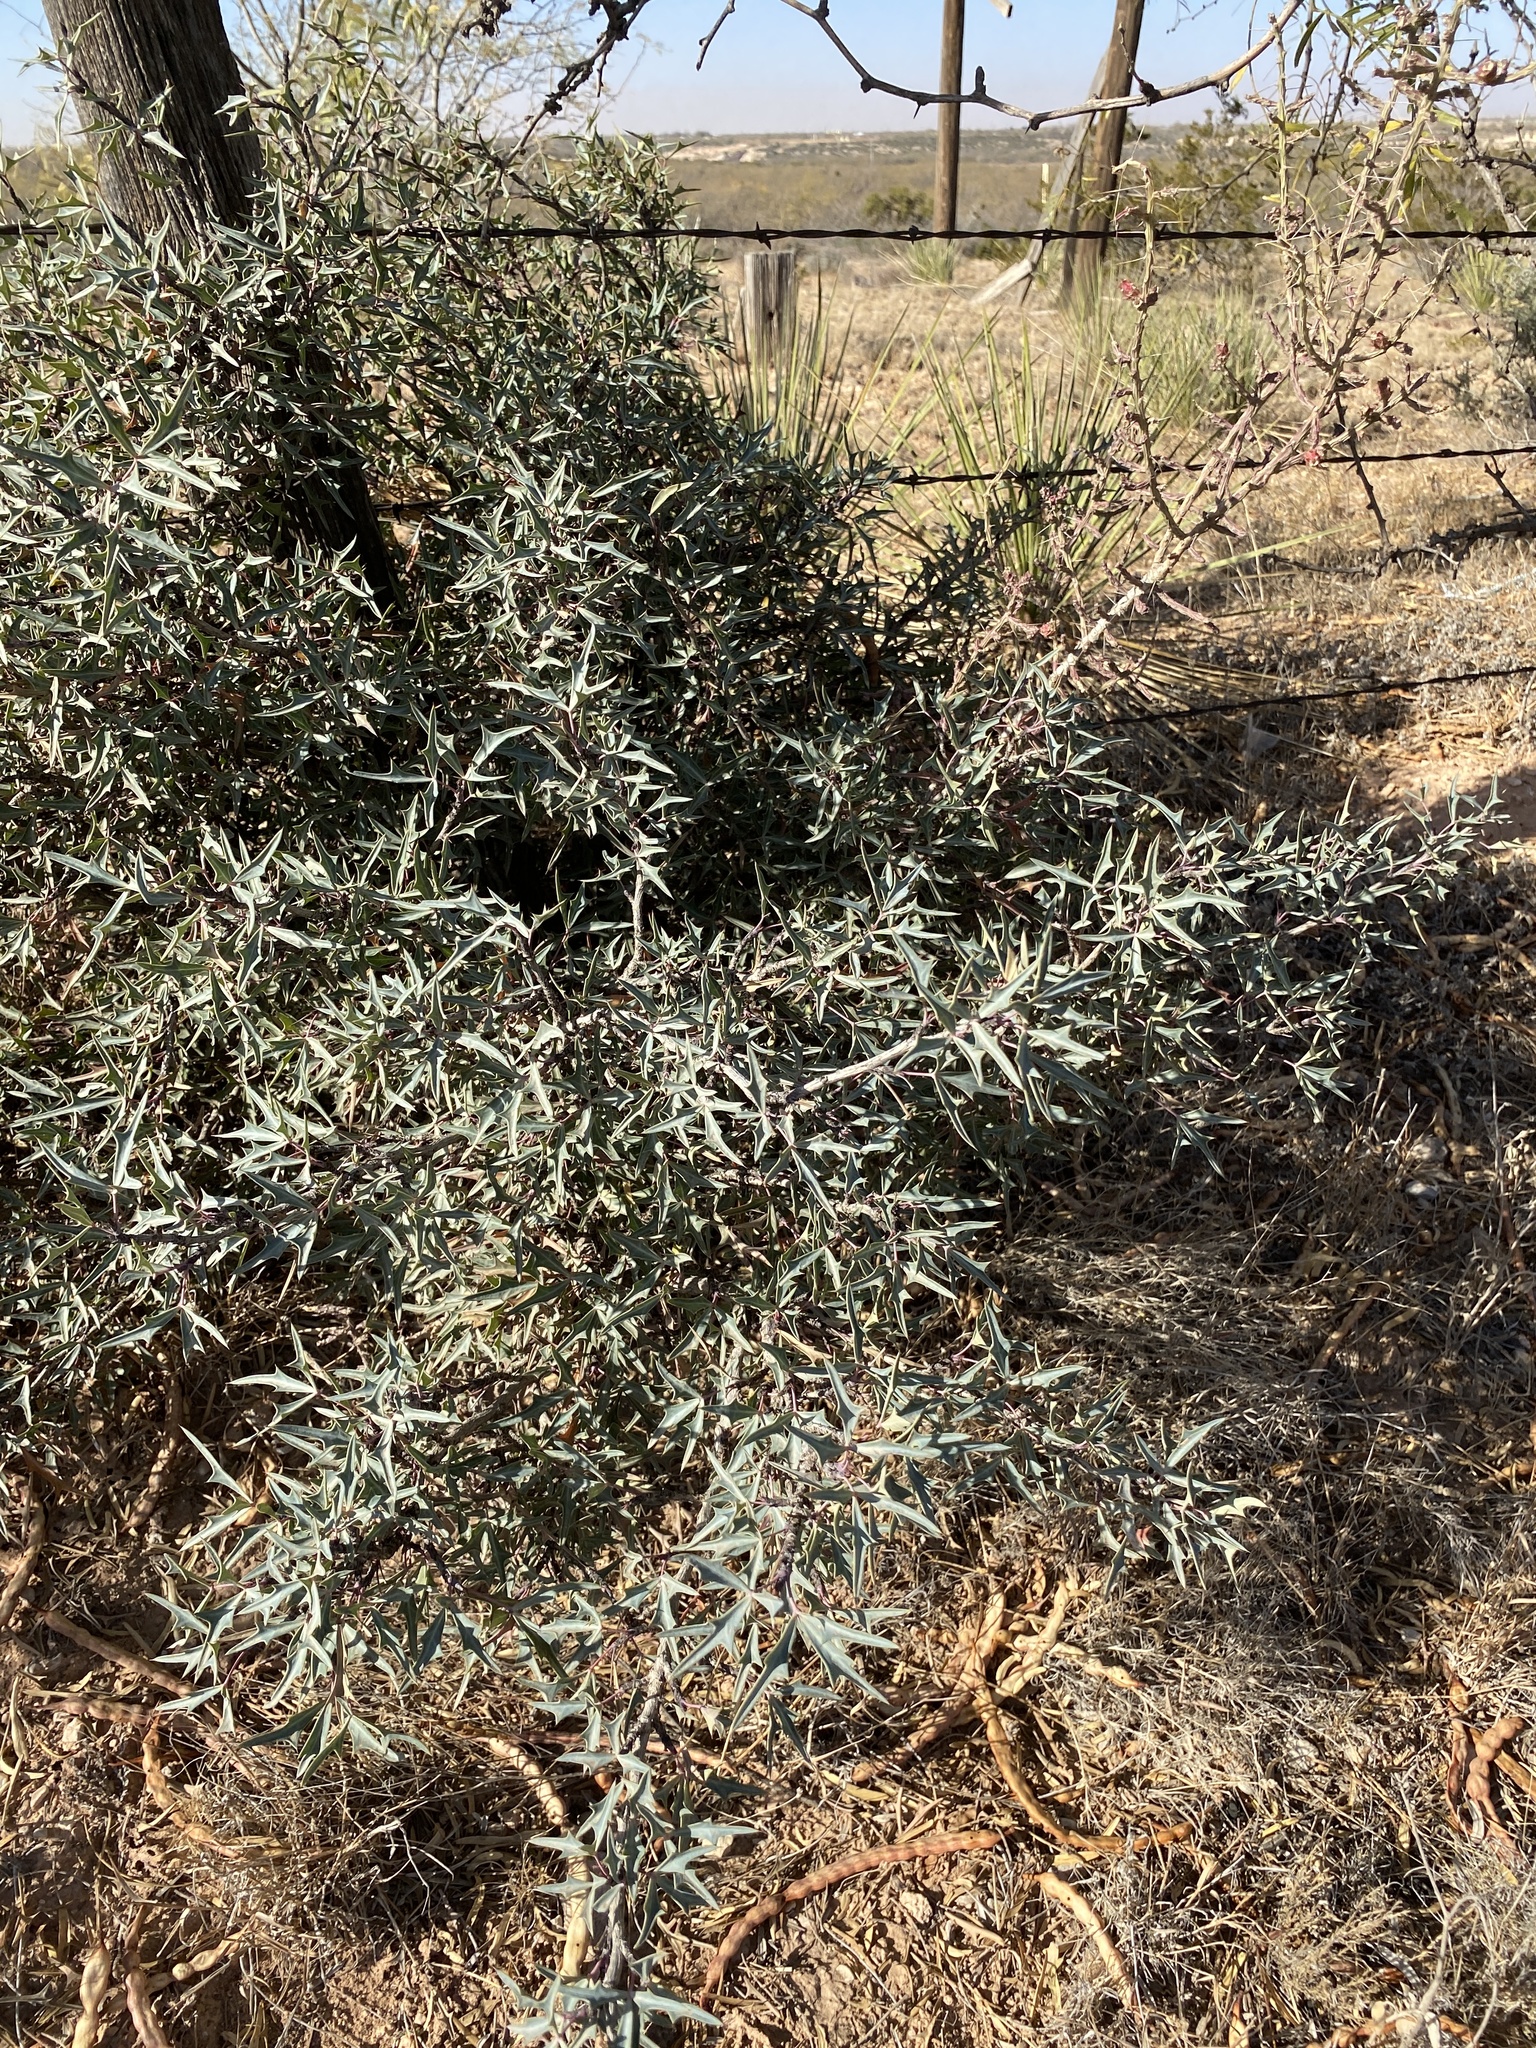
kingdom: Plantae
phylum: Tracheophyta
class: Magnoliopsida
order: Ranunculales
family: Berberidaceae
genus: Alloberberis
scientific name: Alloberberis trifoliolata
